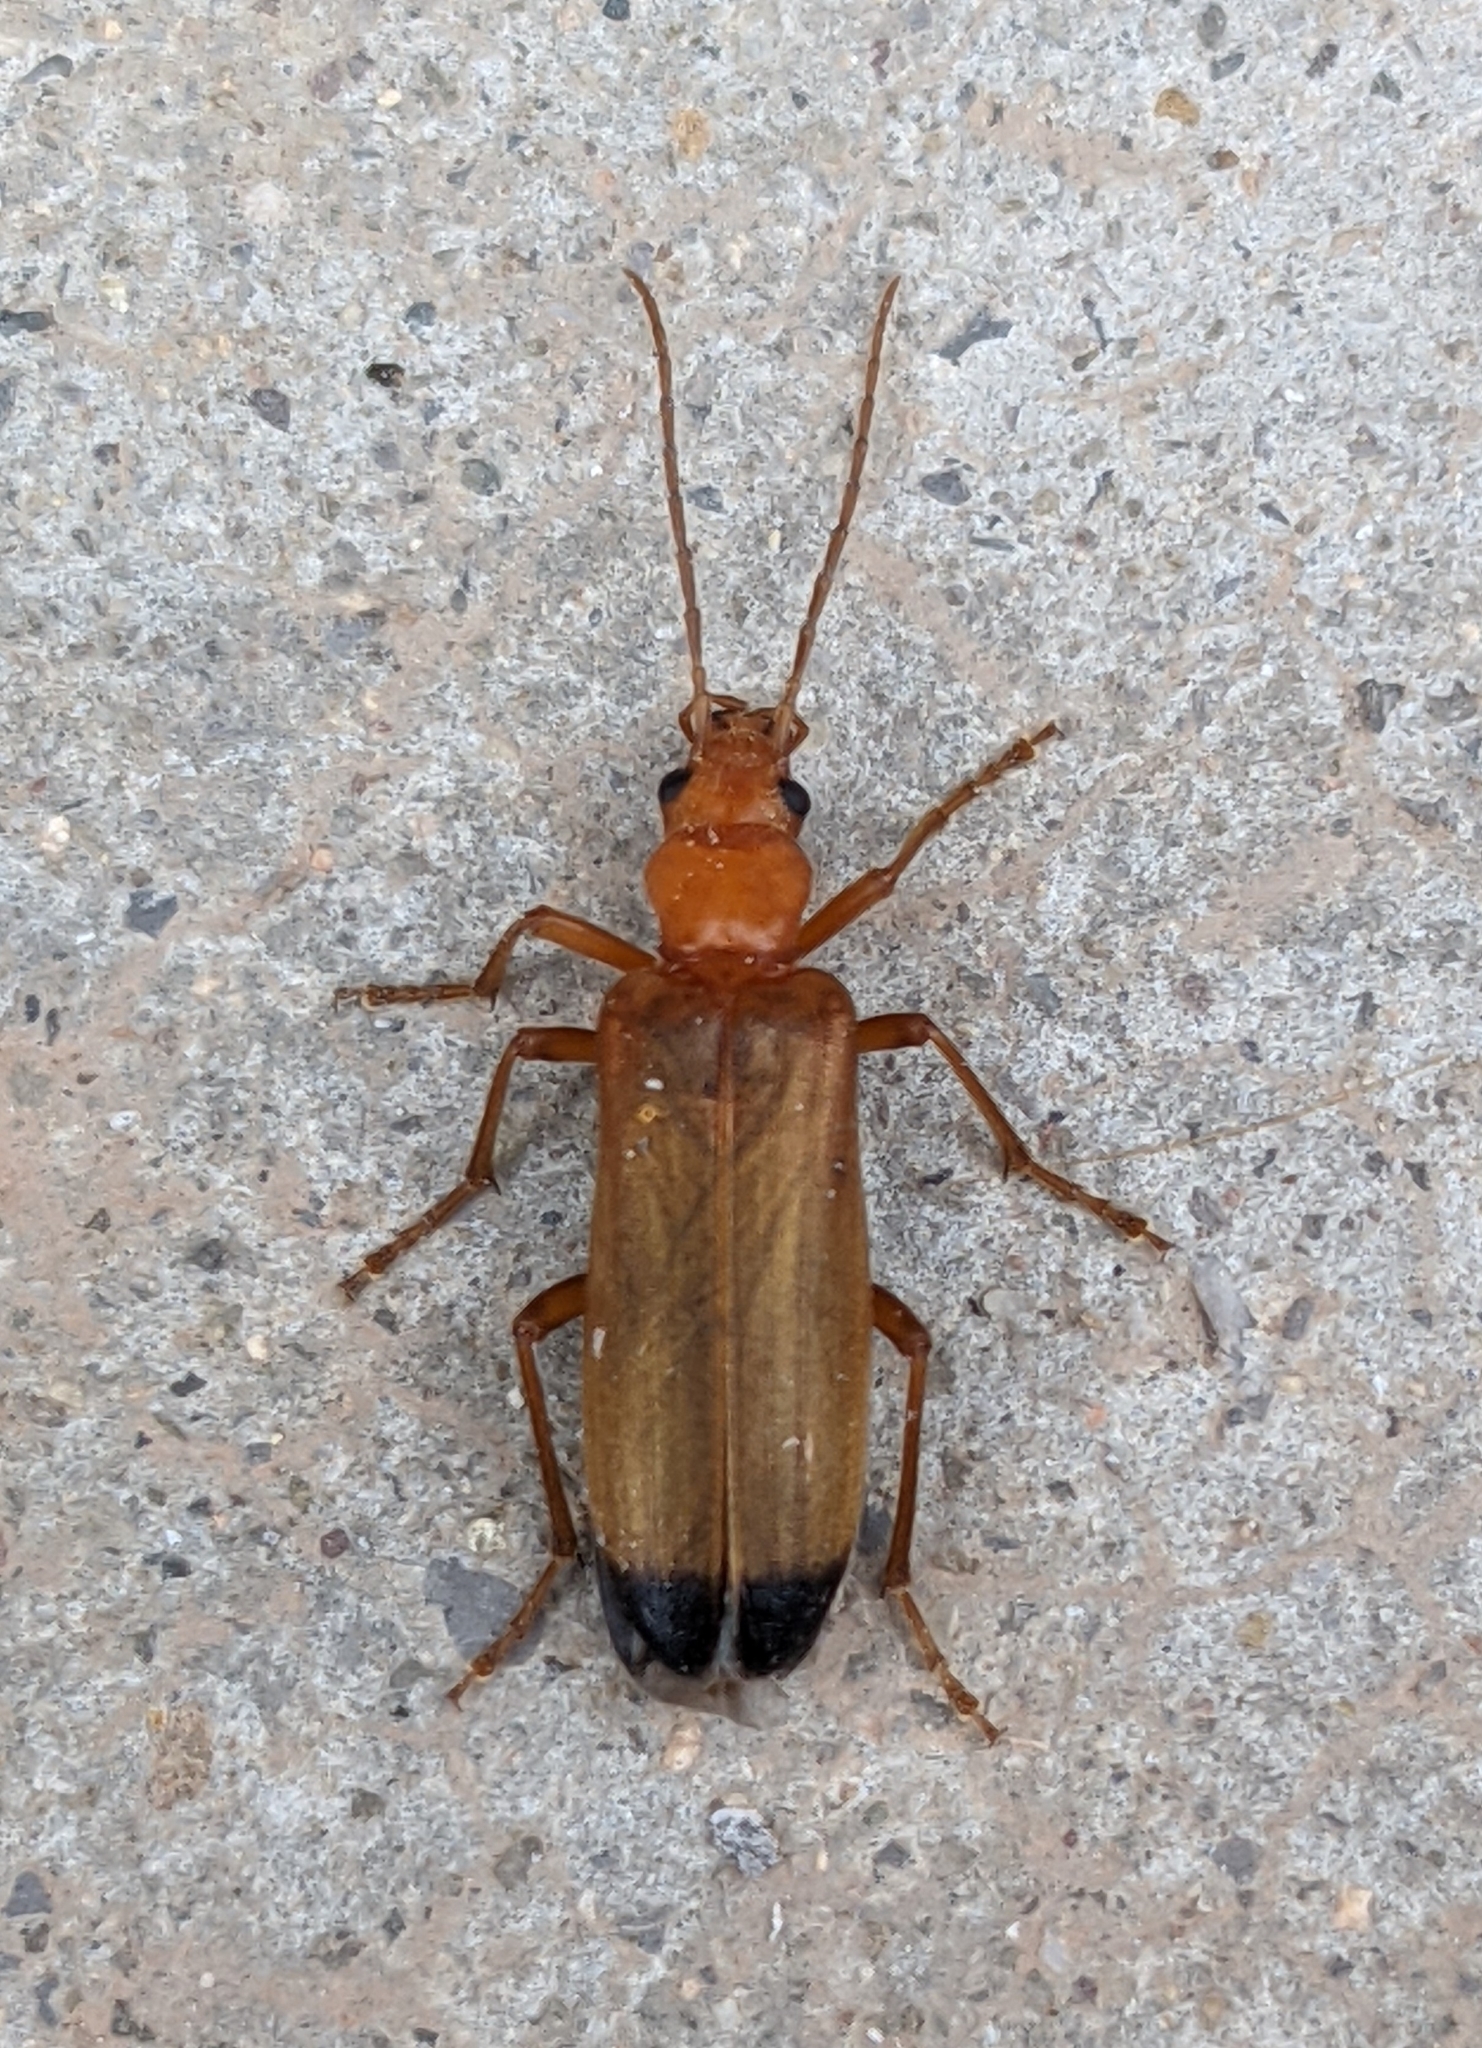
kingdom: Animalia
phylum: Arthropoda
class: Insecta
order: Coleoptera
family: Oedemeridae
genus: Nacerdes
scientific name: Nacerdes melanura
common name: Wharf borer
